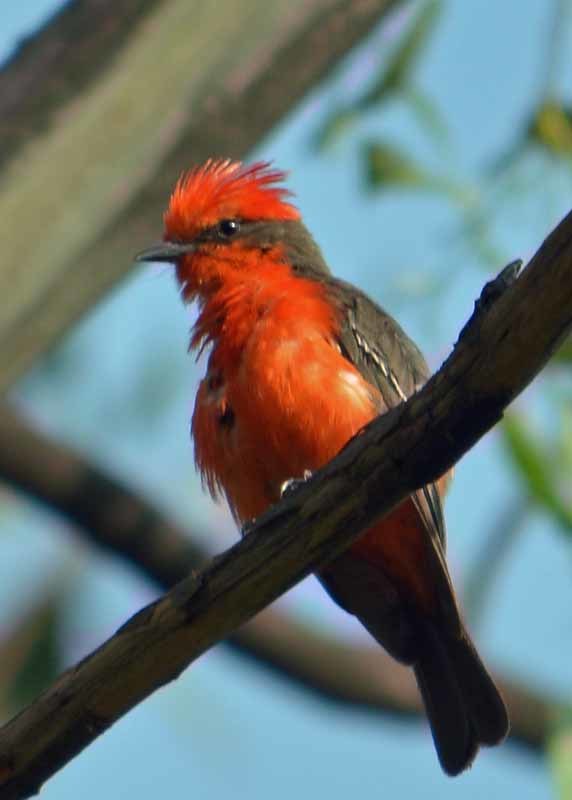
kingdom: Animalia
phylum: Chordata
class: Aves
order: Passeriformes
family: Tyrannidae
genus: Pyrocephalus
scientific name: Pyrocephalus rubinus
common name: Vermilion flycatcher
